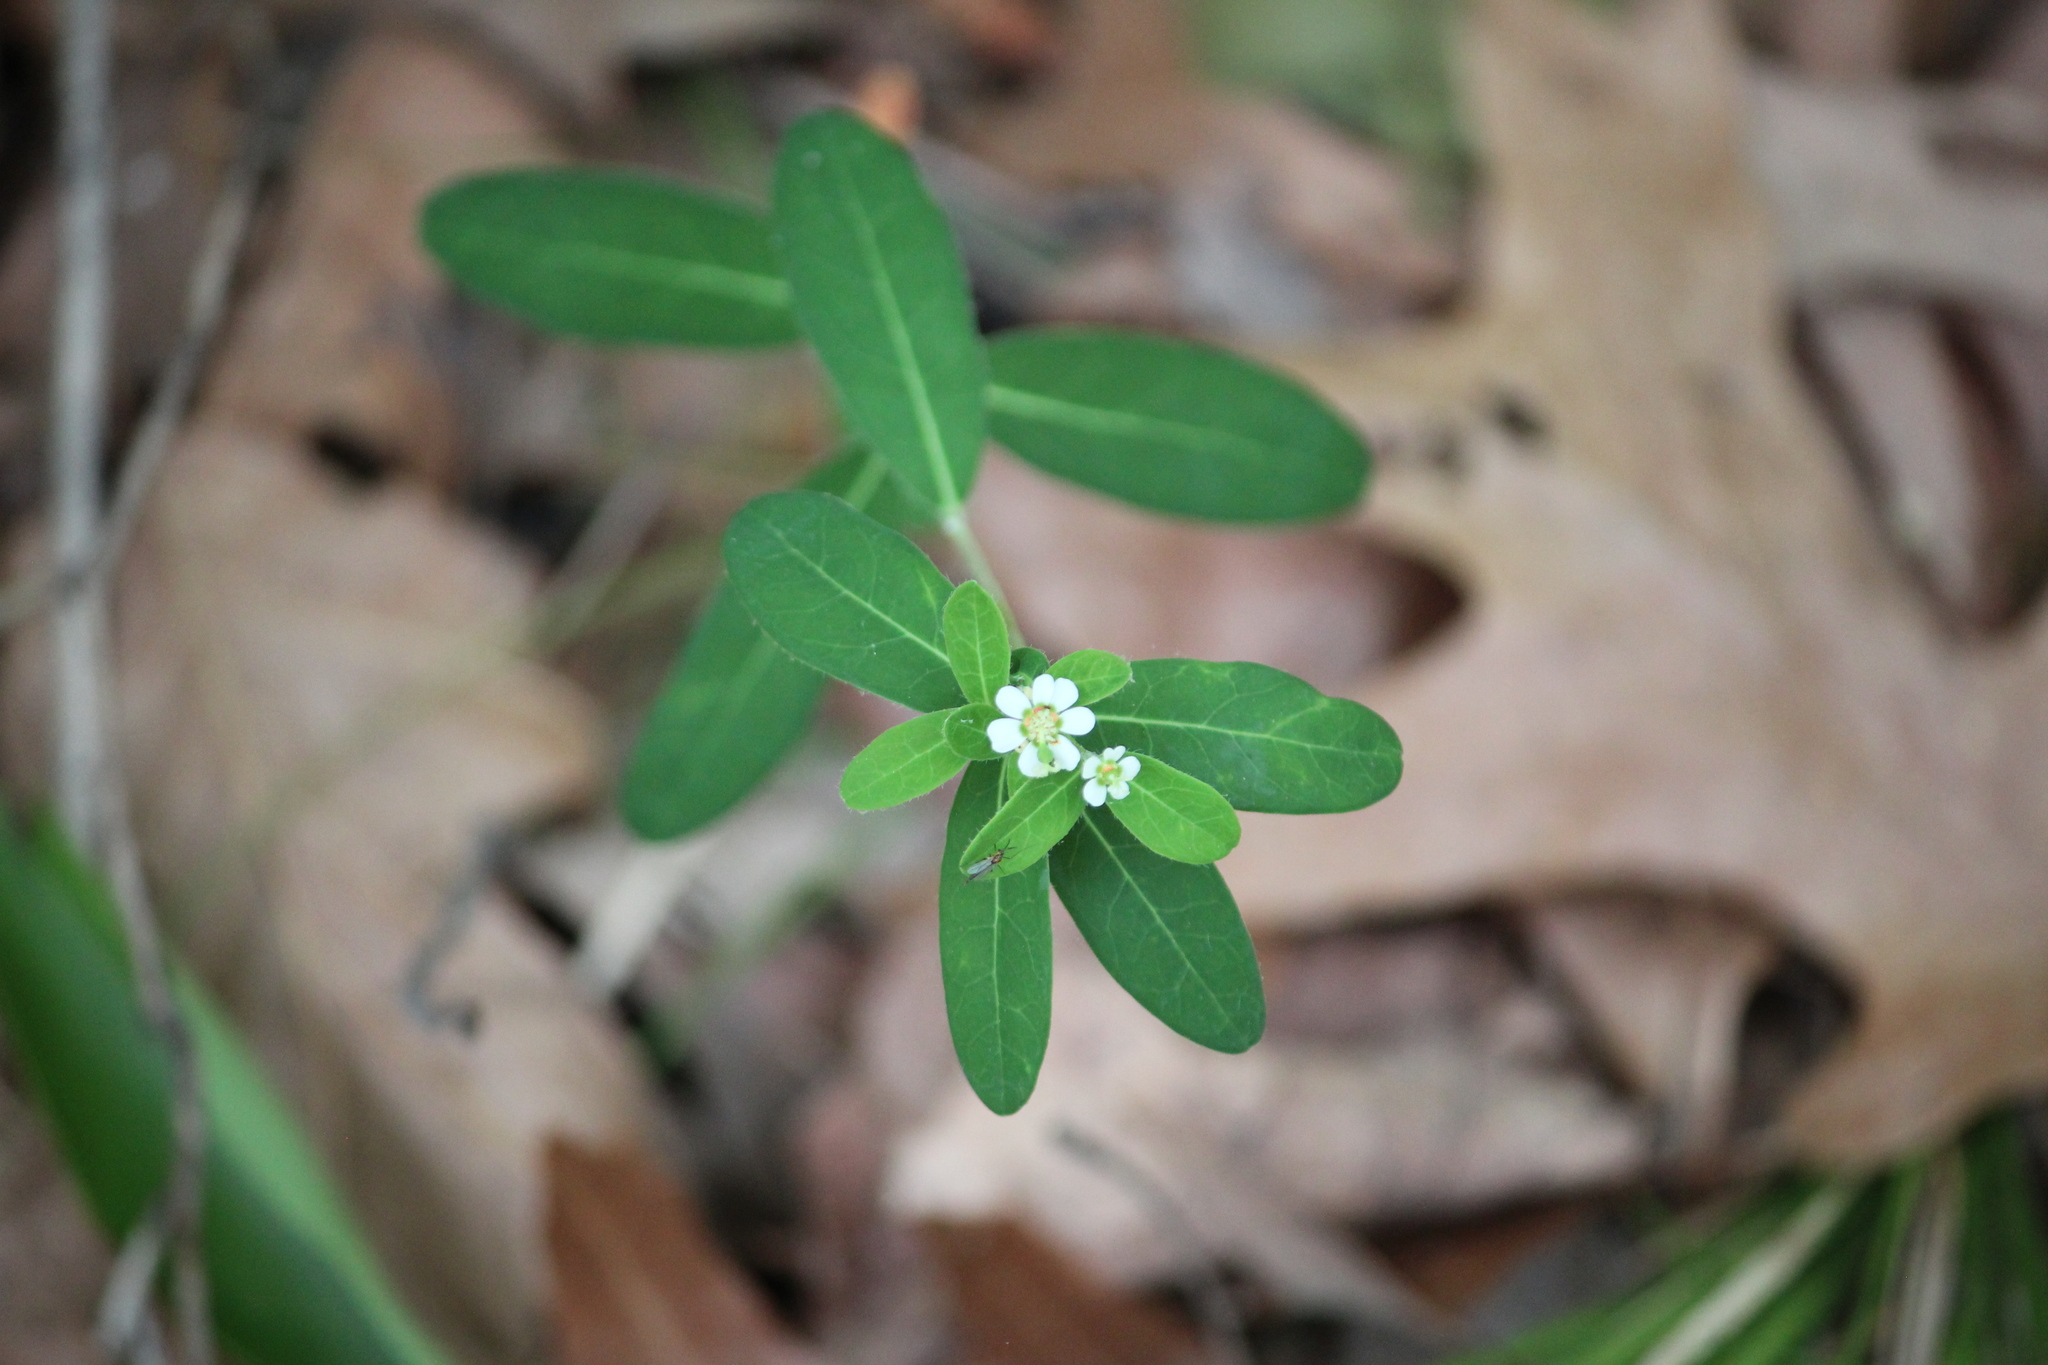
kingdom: Plantae
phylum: Tracheophyta
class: Magnoliopsida
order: Malpighiales
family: Euphorbiaceae
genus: Euphorbia
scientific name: Euphorbia corollata
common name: Flowering spurge
